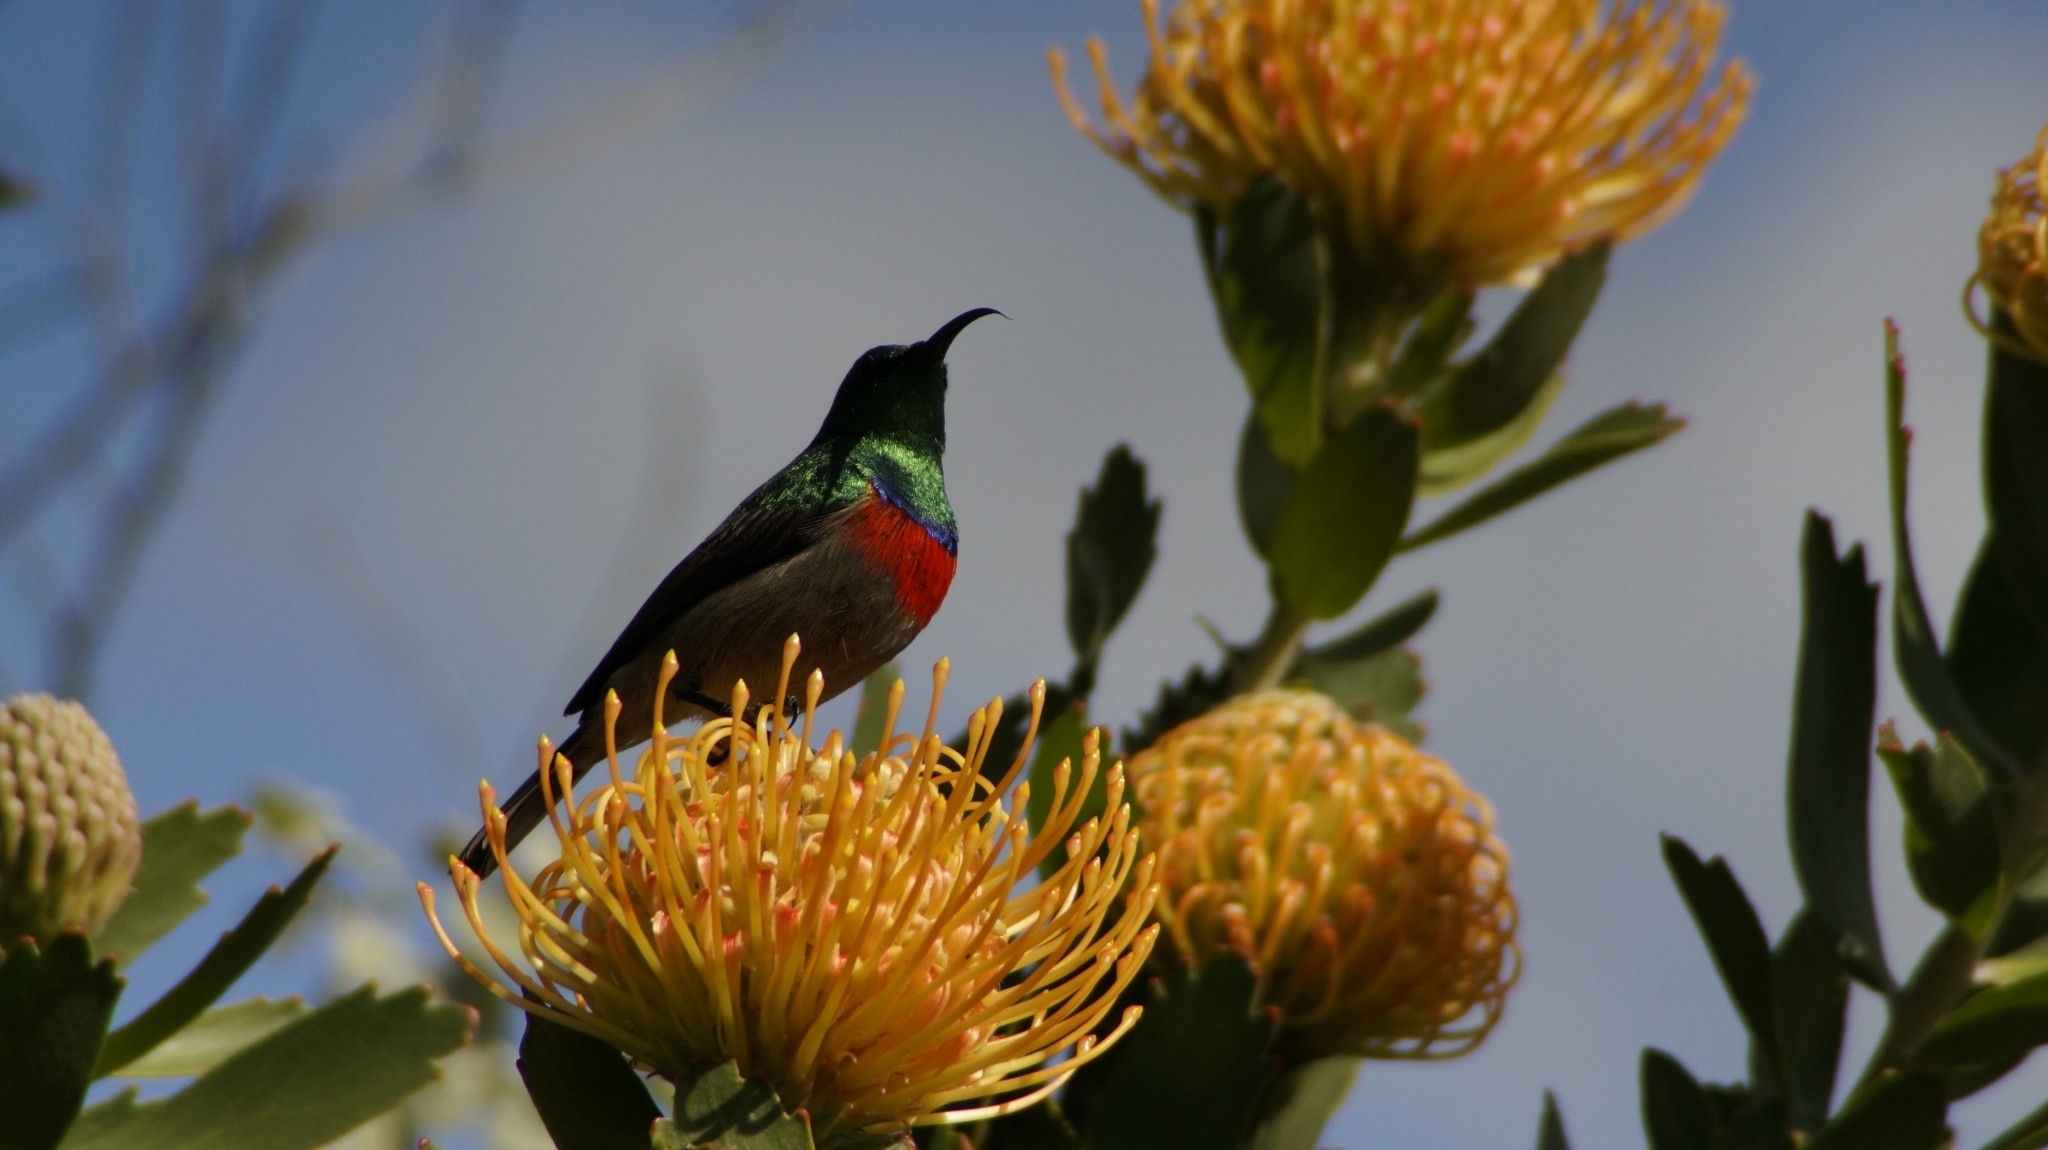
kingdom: Animalia
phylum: Chordata
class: Aves
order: Passeriformes
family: Nectariniidae
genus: Cinnyris
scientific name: Cinnyris afer
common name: Greater double-collared sunbird
